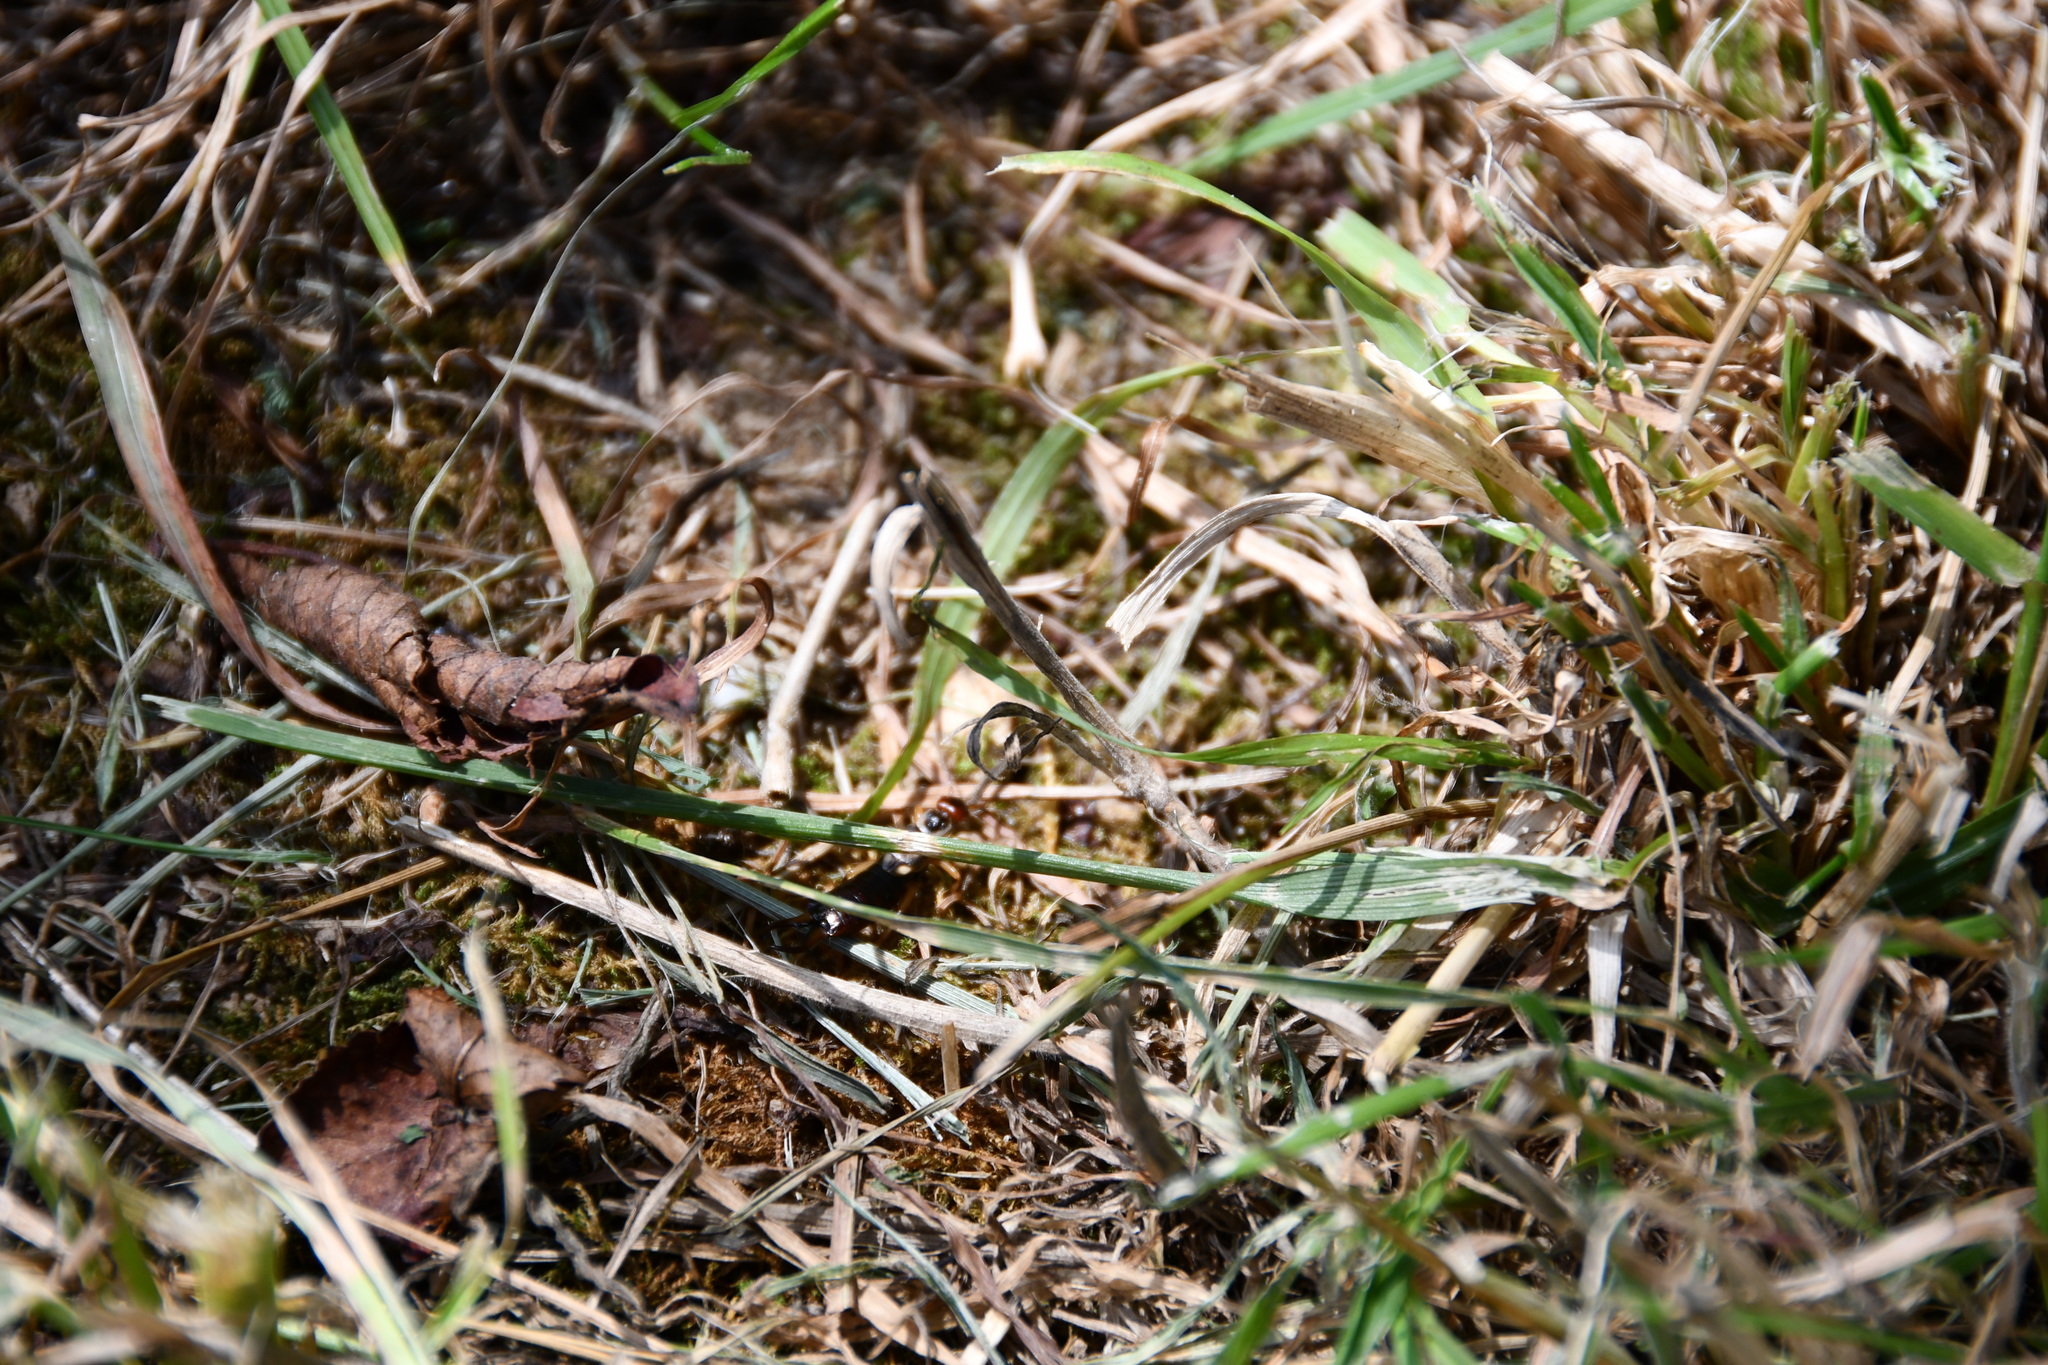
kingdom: Animalia
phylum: Arthropoda
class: Insecta
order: Dermaptera
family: Forficulidae
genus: Forficula
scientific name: Forficula
